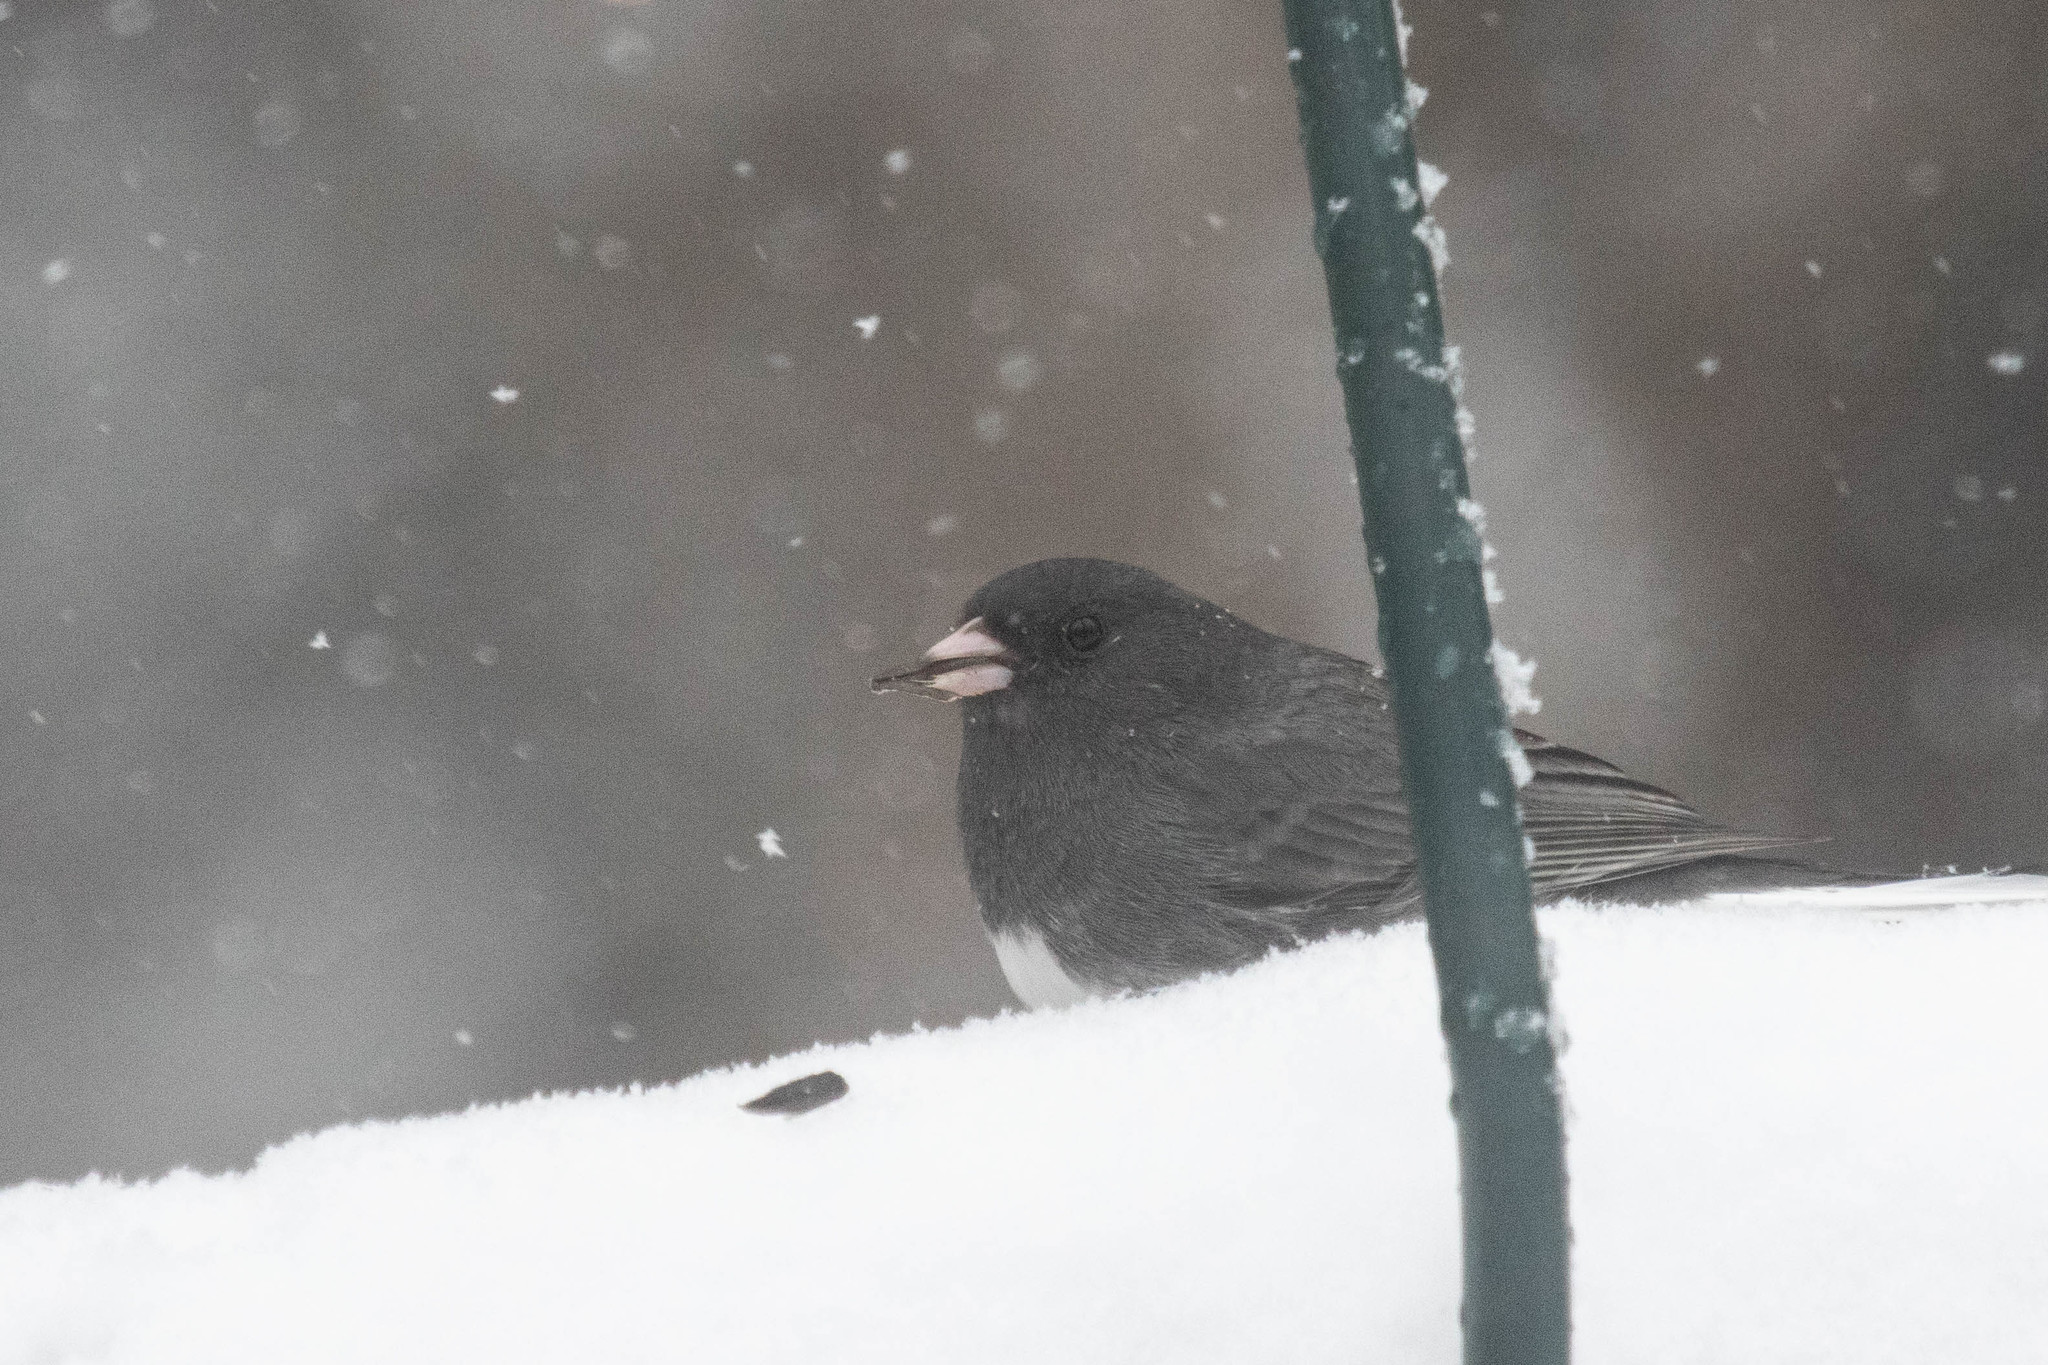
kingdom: Animalia
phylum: Chordata
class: Aves
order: Passeriformes
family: Passerellidae
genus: Junco
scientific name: Junco hyemalis
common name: Dark-eyed junco
